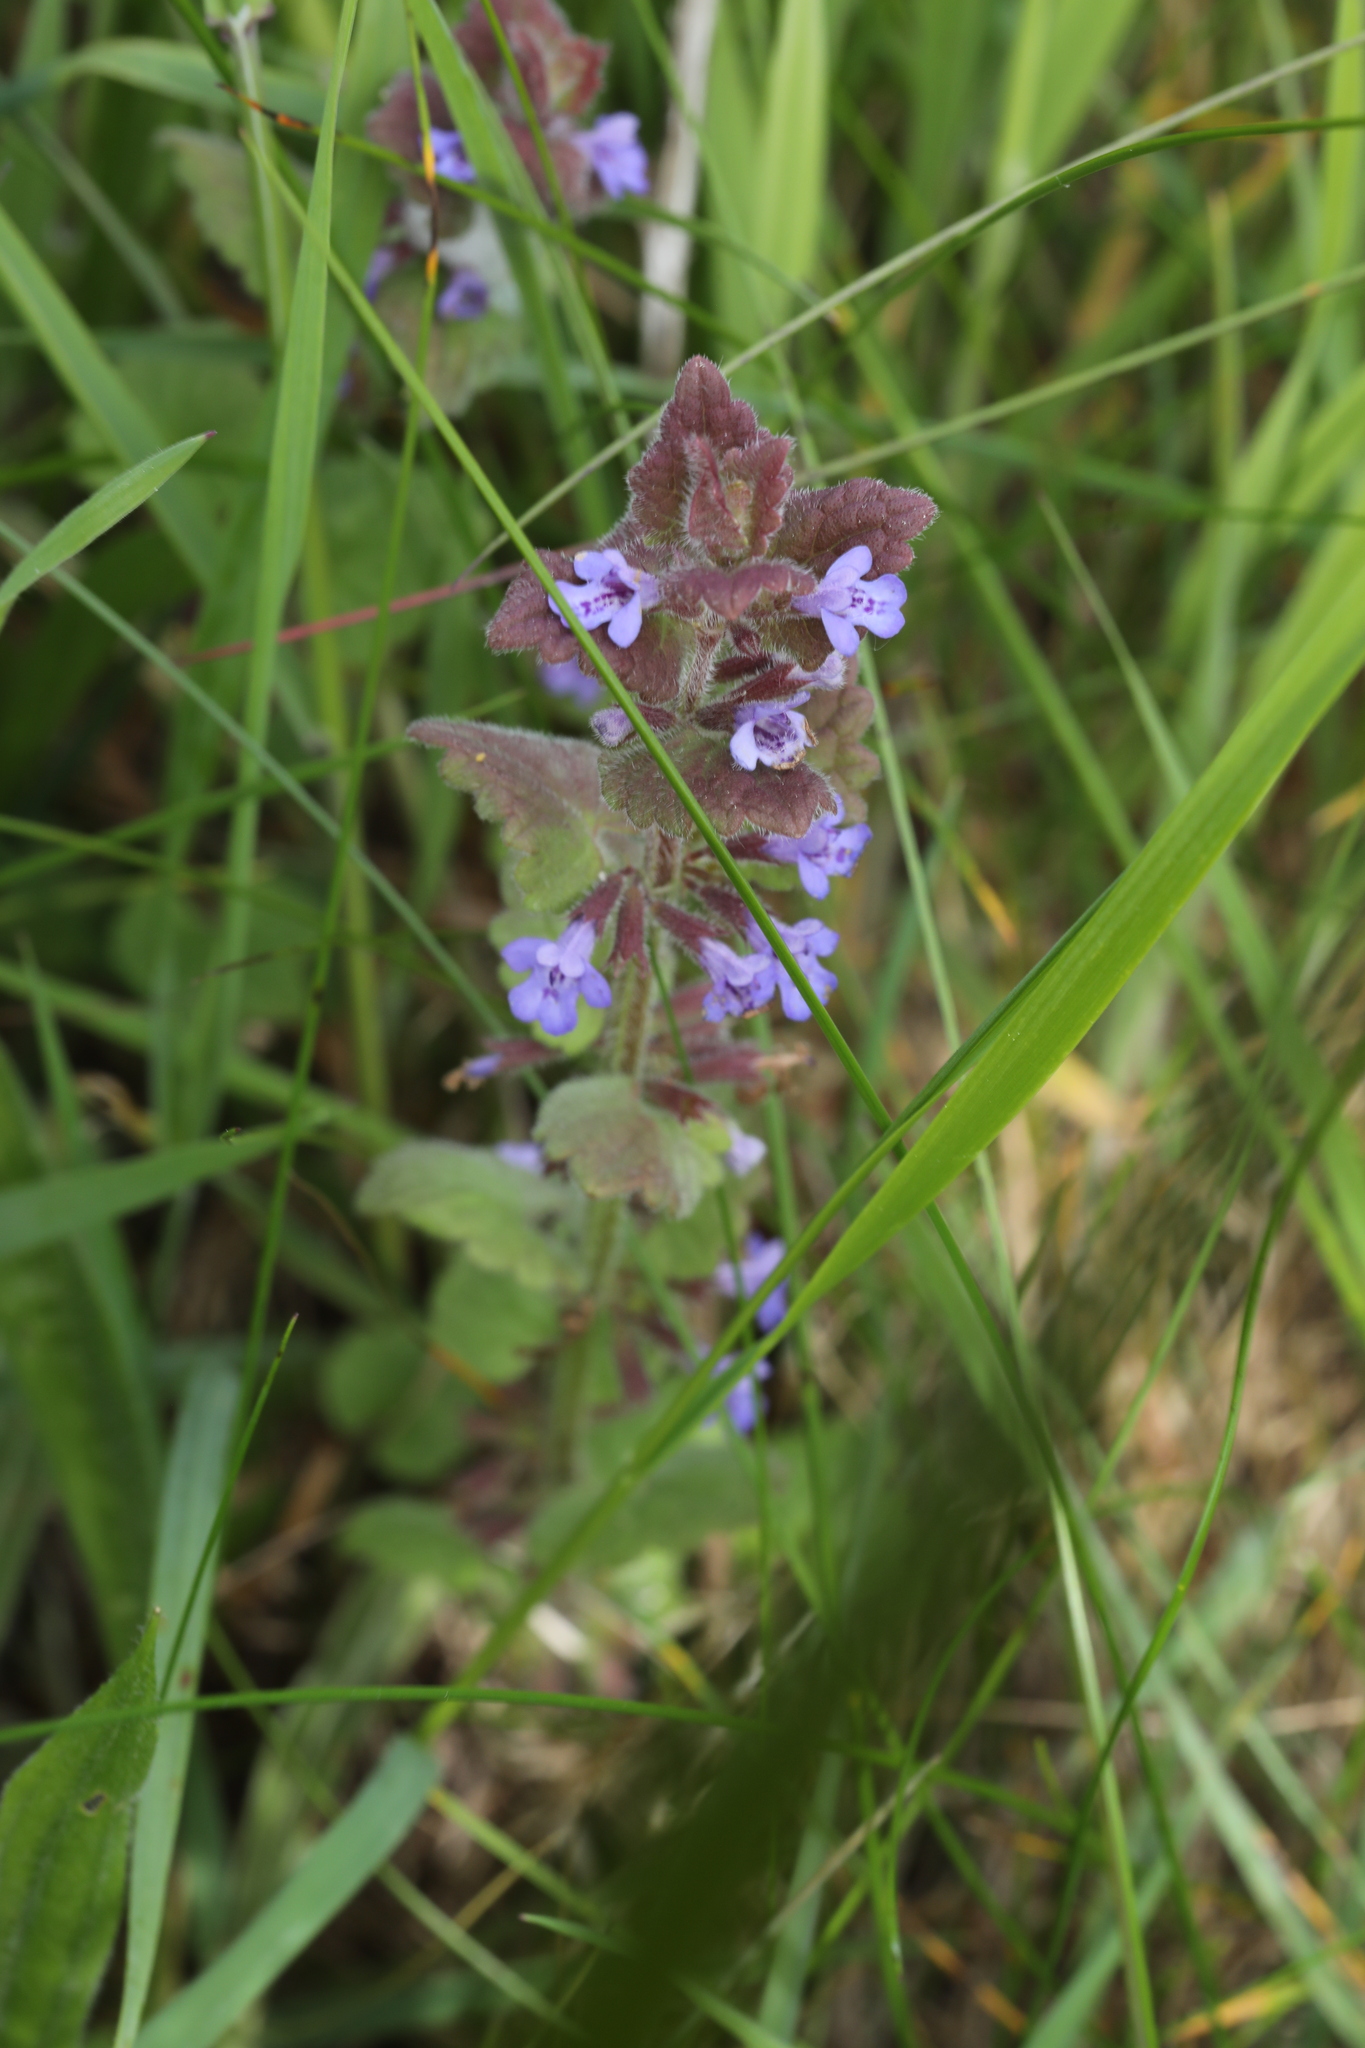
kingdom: Plantae
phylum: Tracheophyta
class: Magnoliopsida
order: Lamiales
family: Lamiaceae
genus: Glechoma
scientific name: Glechoma hederacea
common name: Ground ivy
